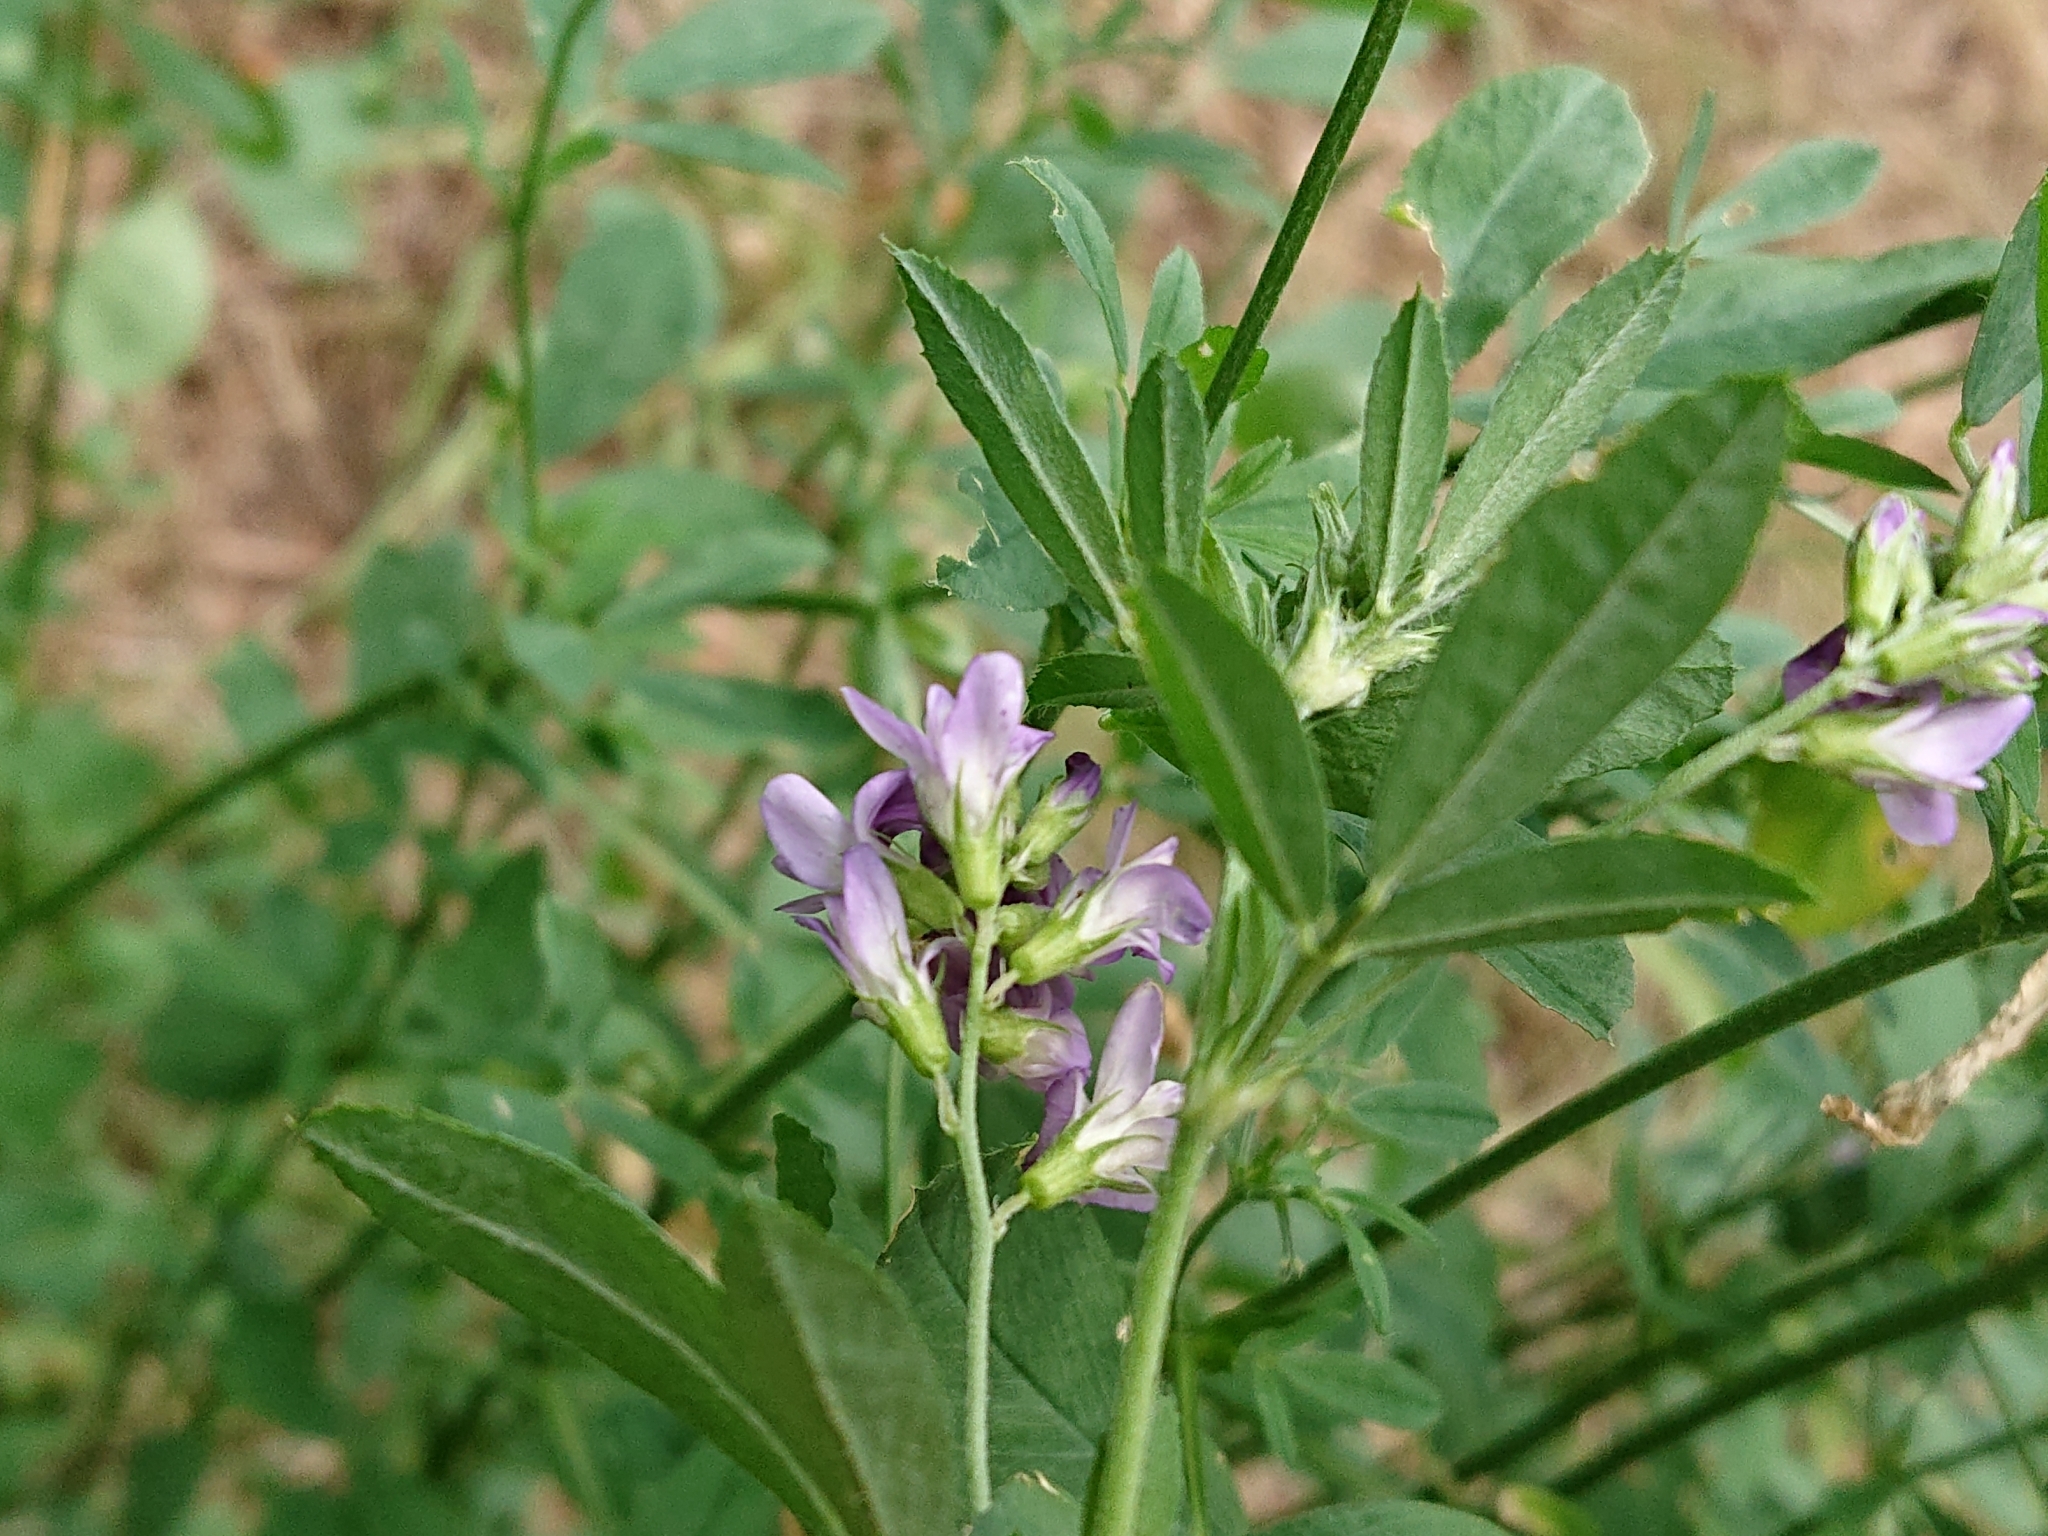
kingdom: Plantae
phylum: Tracheophyta
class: Magnoliopsida
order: Fabales
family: Fabaceae
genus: Medicago
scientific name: Medicago sativa
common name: Alfalfa
